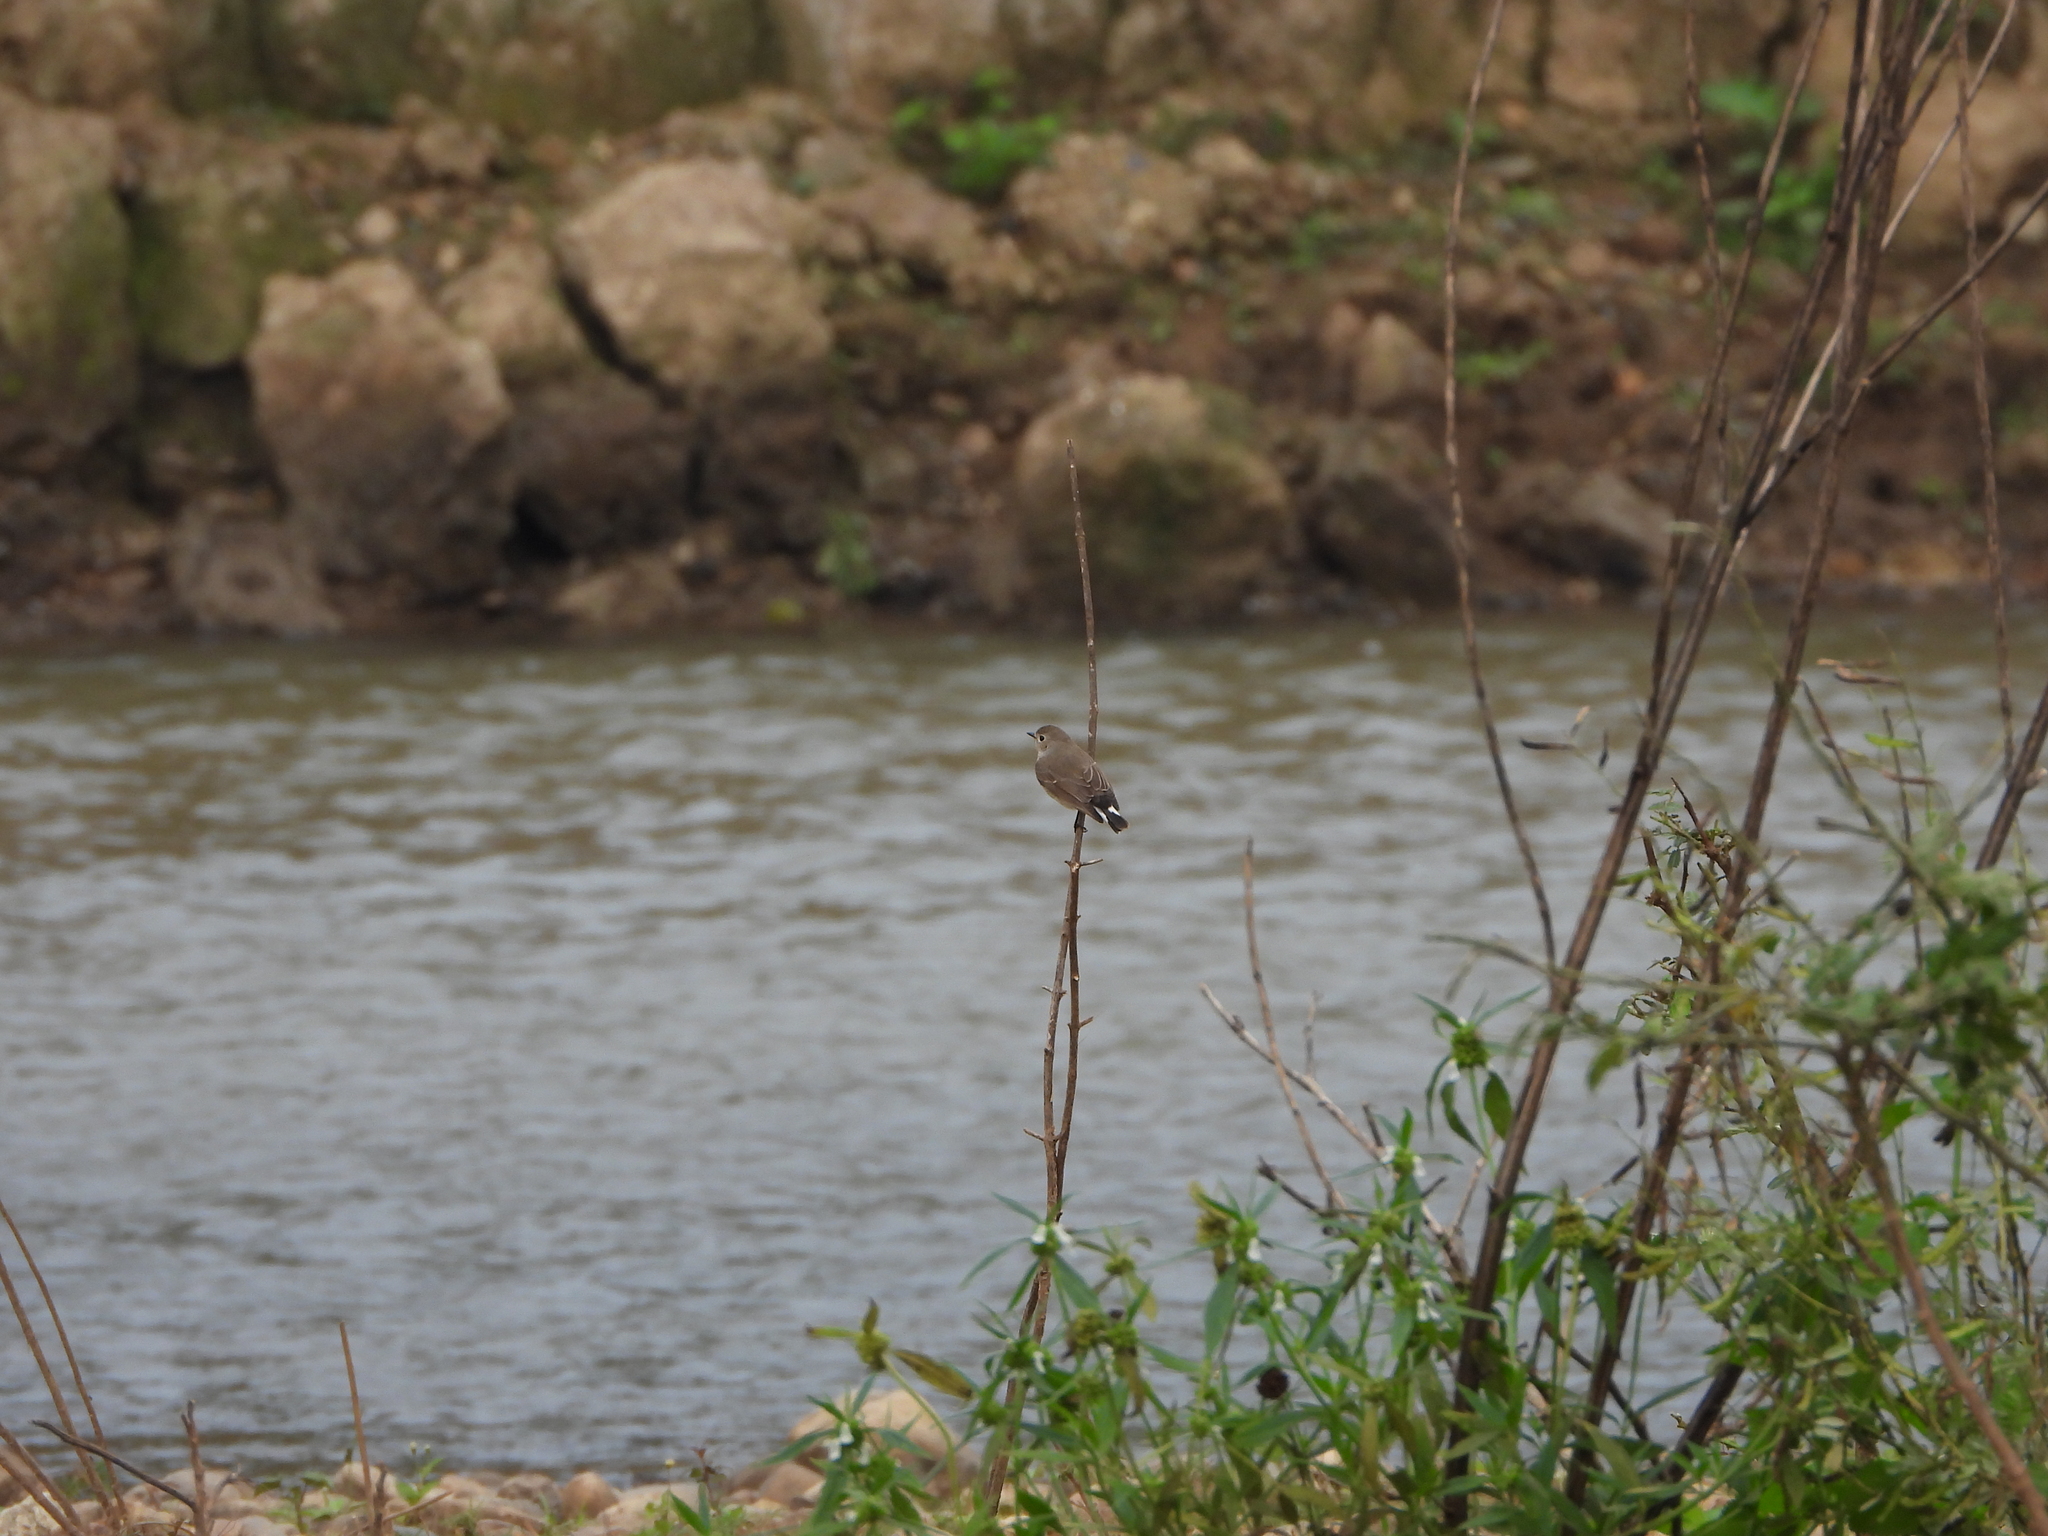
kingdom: Animalia
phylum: Chordata
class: Aves
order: Passeriformes
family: Muscicapidae
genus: Ficedula
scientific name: Ficedula albicilla
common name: Taiga flycatcher
